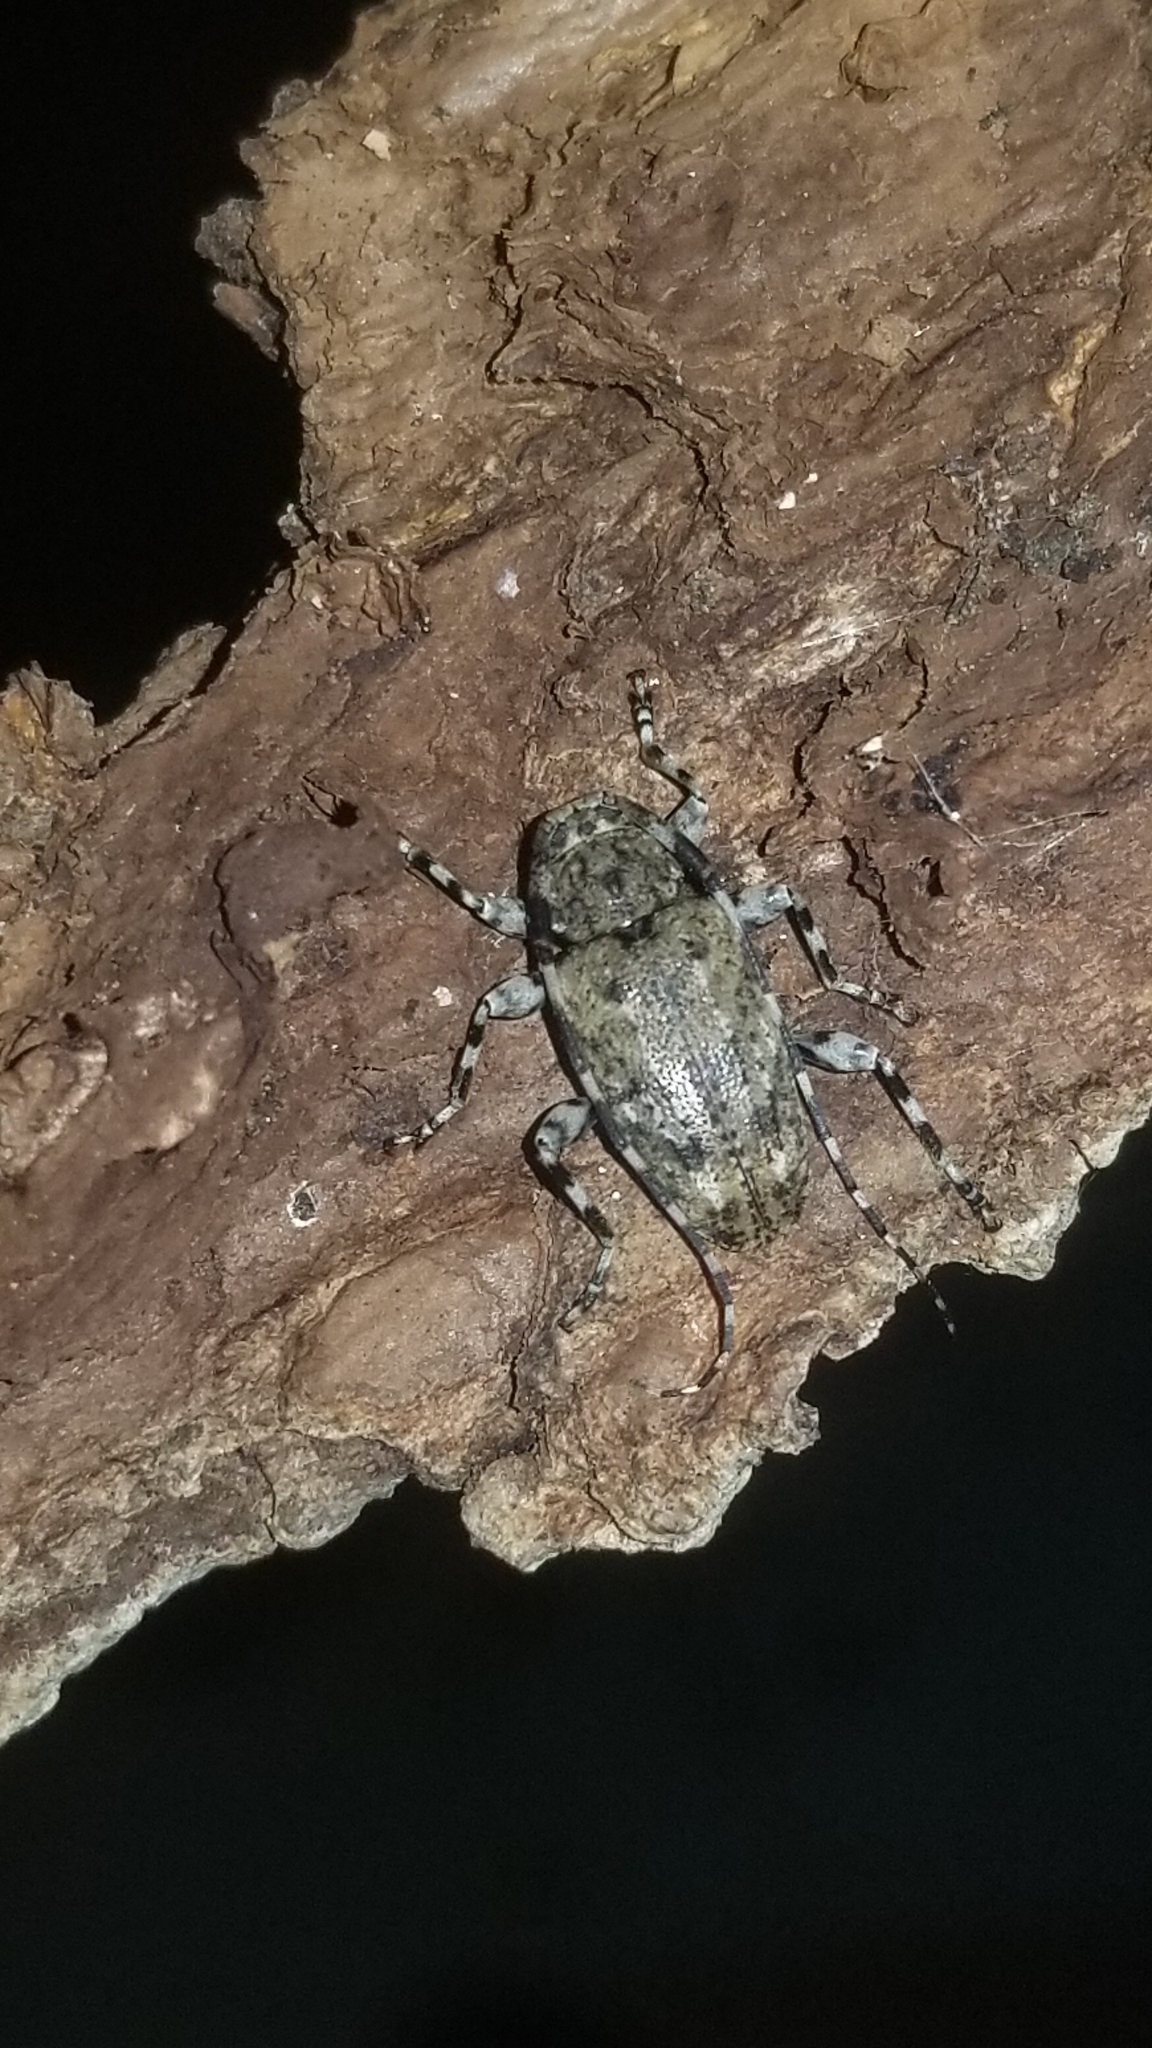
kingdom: Animalia
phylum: Arthropoda
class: Insecta
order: Coleoptera
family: Cerambycidae
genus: Astyleiopus
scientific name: Astyleiopus variegatus
